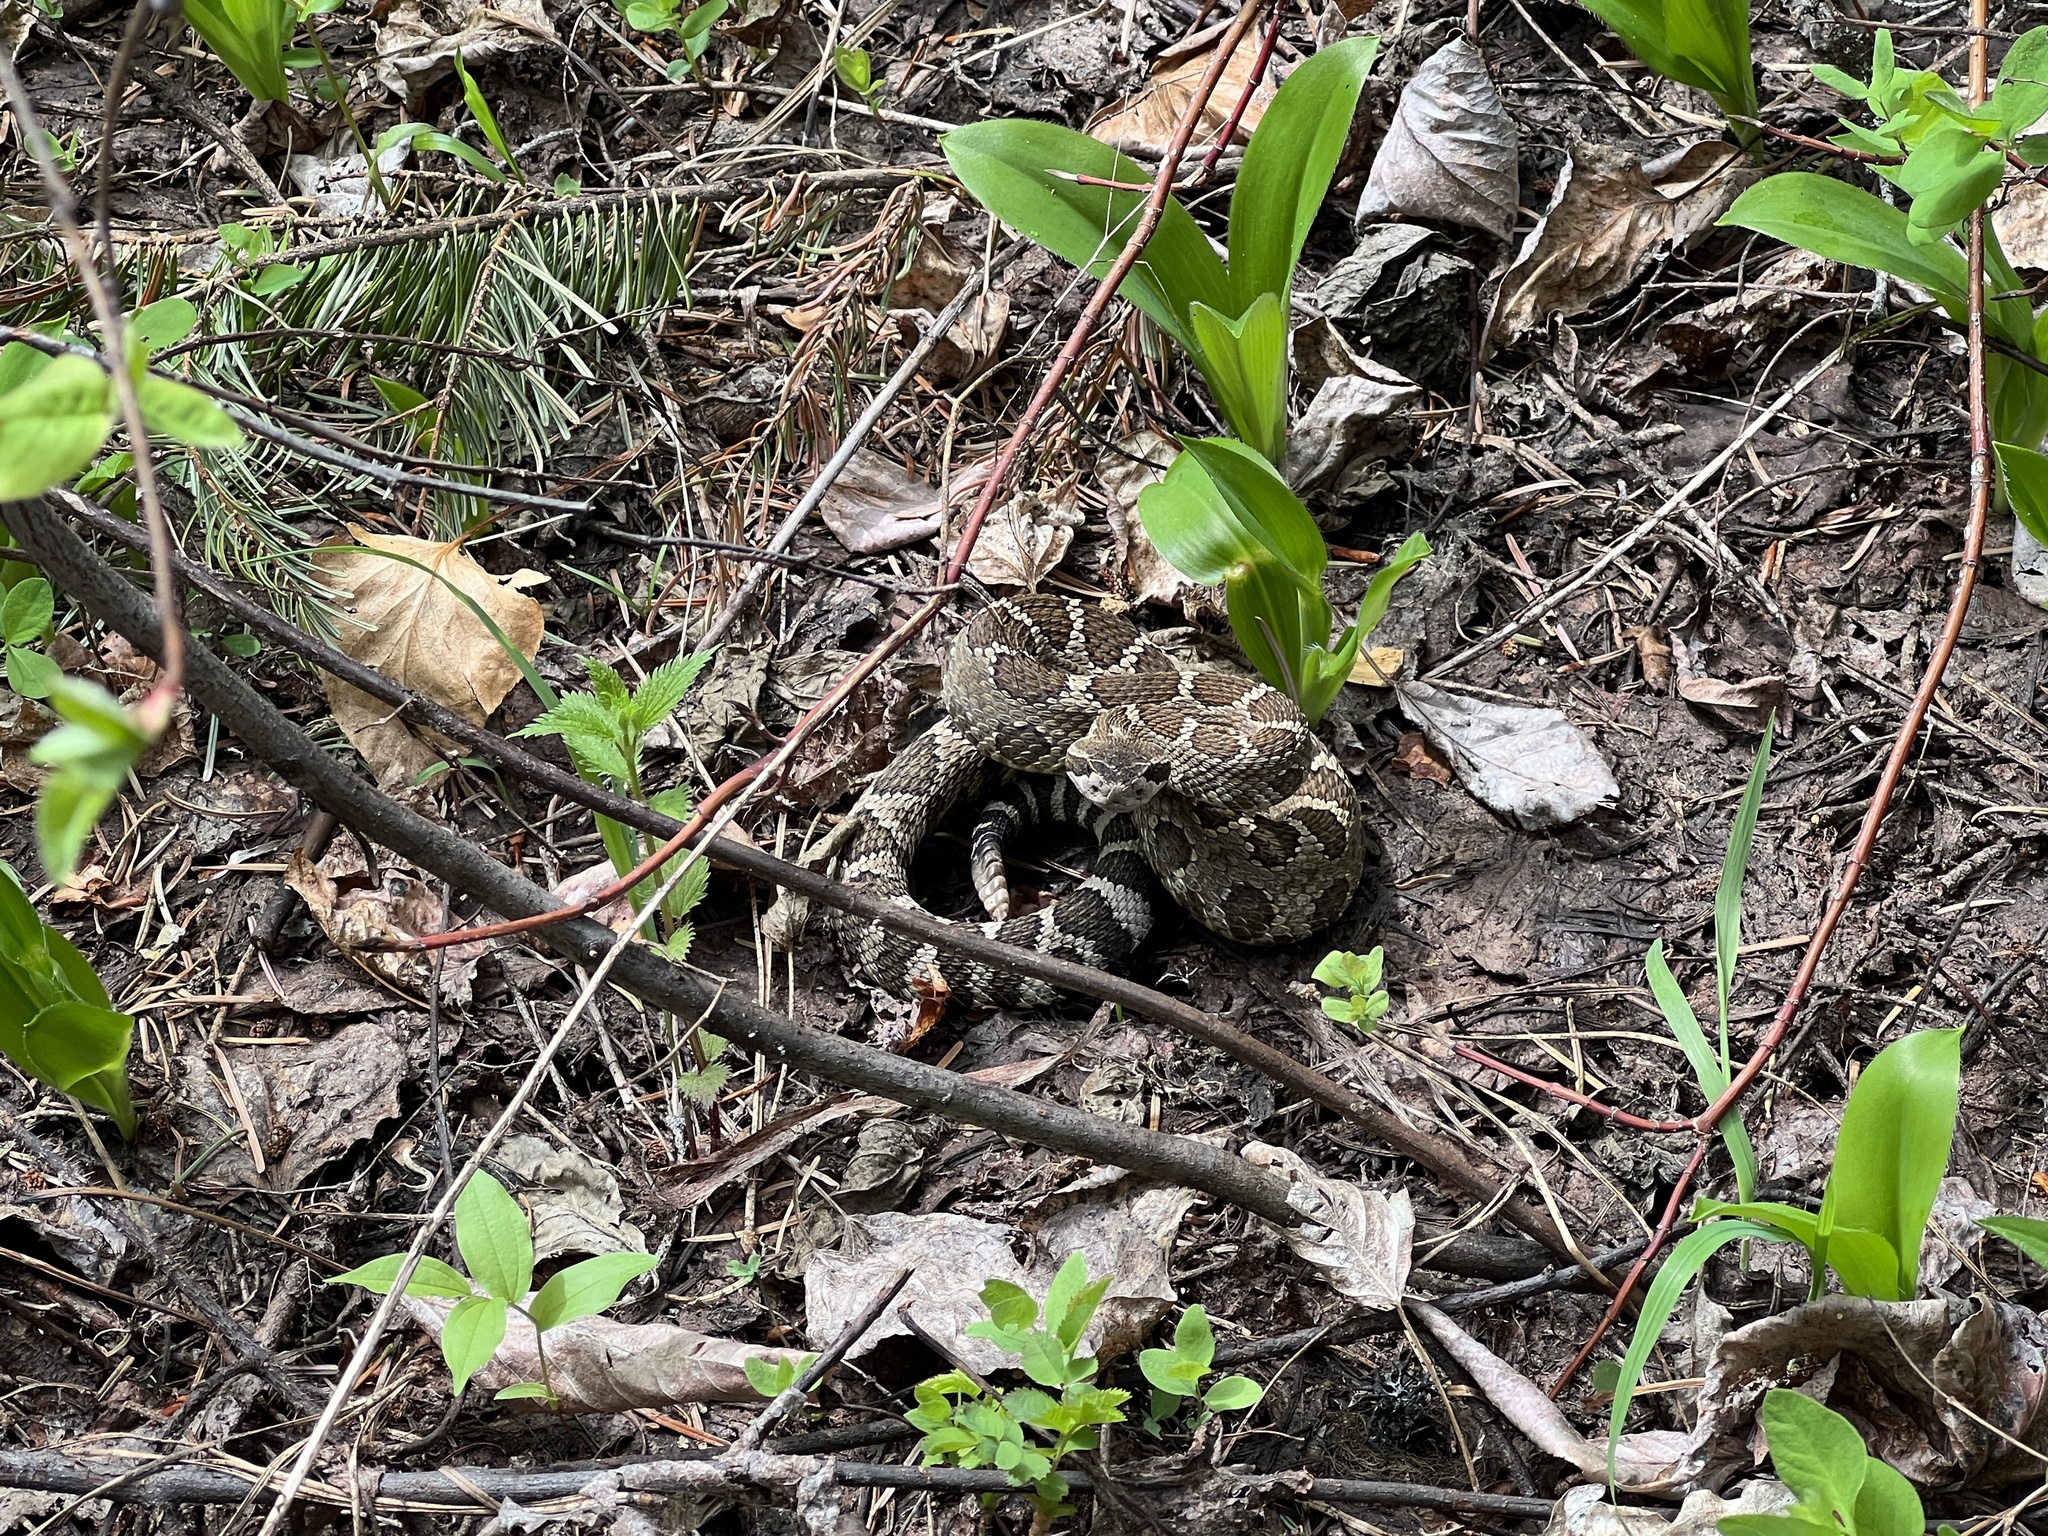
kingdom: Animalia
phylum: Chordata
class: Squamata
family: Viperidae
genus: Crotalus
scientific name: Crotalus oreganus
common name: Abyssus
